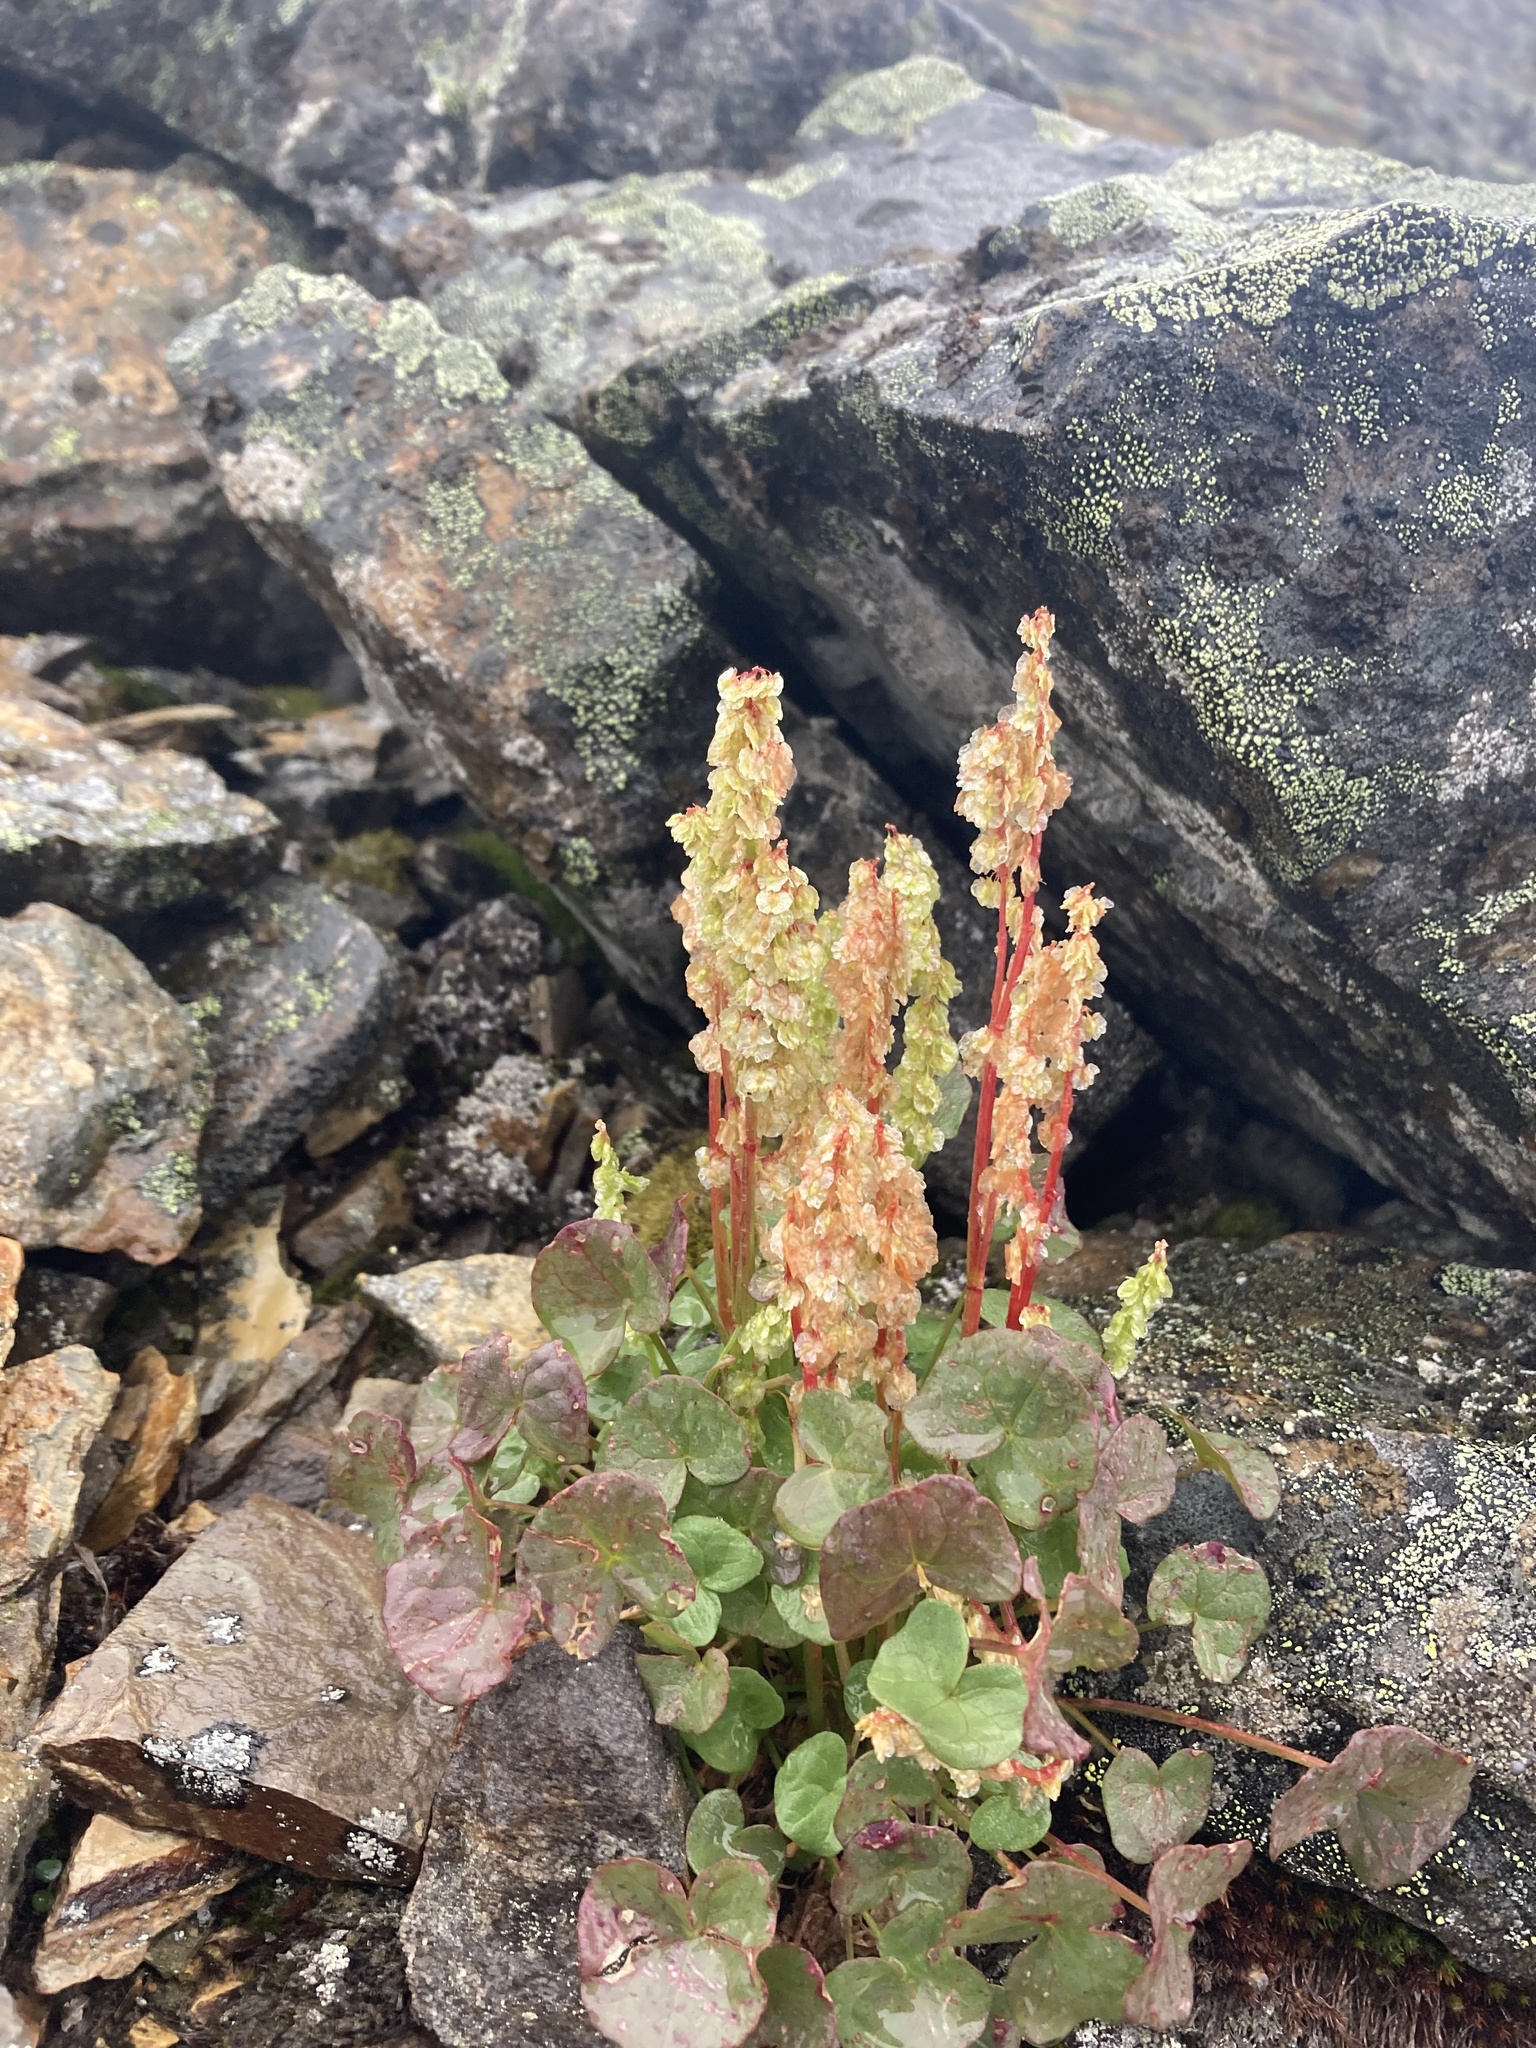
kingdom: Plantae
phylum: Tracheophyta
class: Magnoliopsida
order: Caryophyllales
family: Polygonaceae
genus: Oxyria
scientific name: Oxyria digyna
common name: Alpine mountain-sorrel
